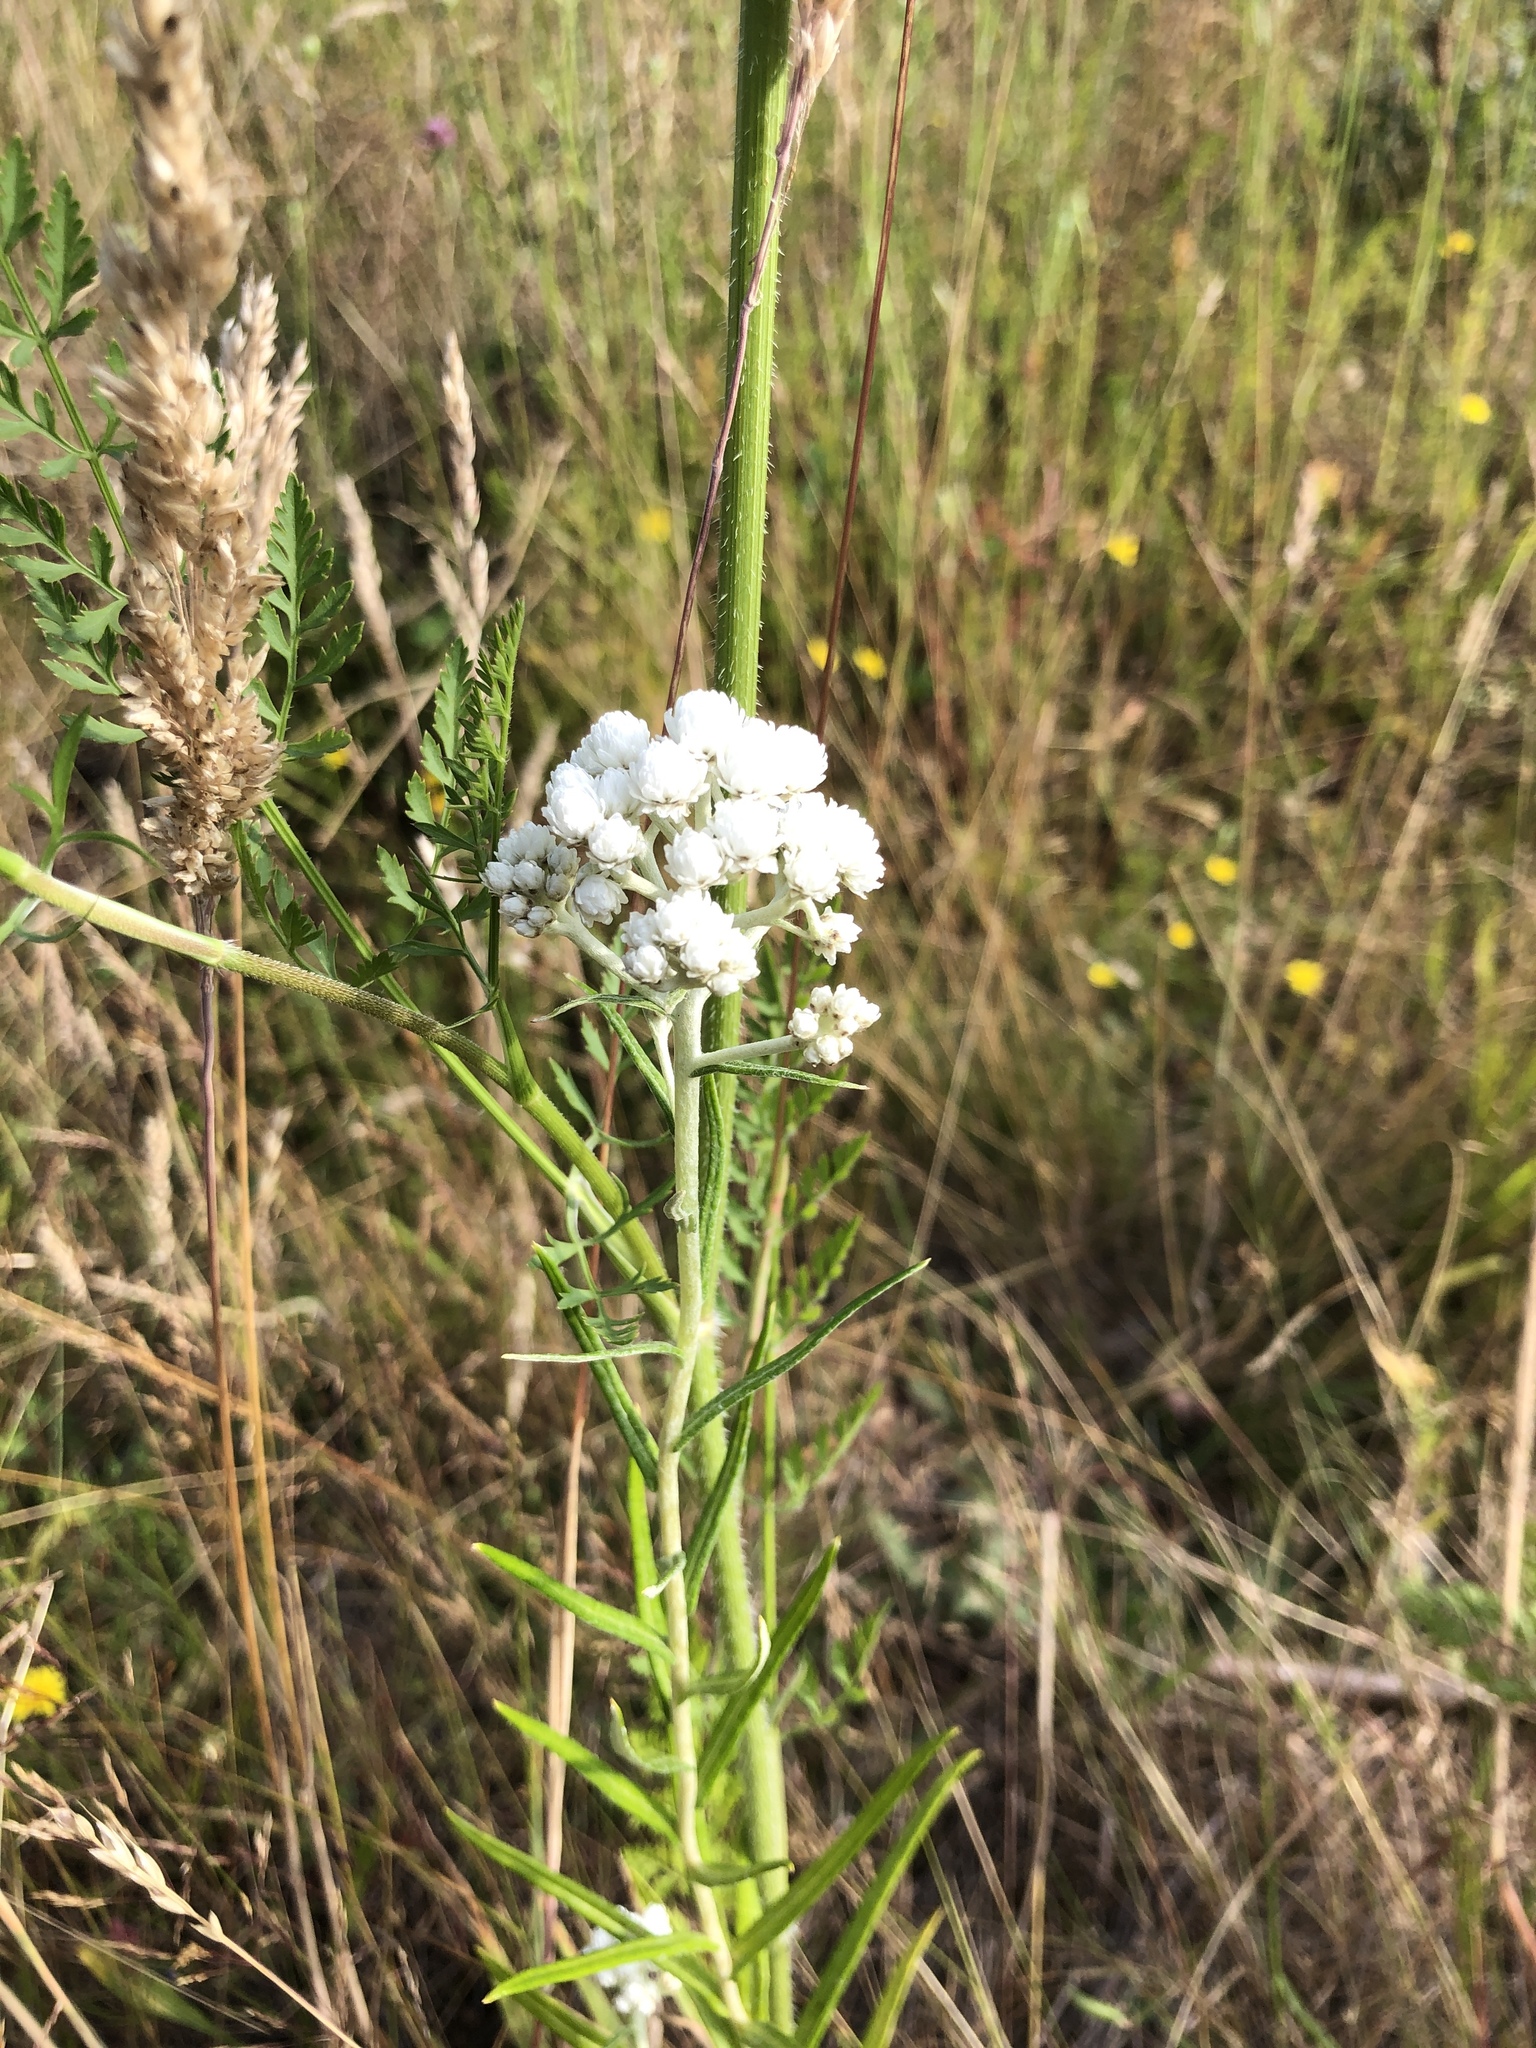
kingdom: Plantae
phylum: Tracheophyta
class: Magnoliopsida
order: Asterales
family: Asteraceae
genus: Anaphalis
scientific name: Anaphalis margaritacea
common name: Pearly everlasting
